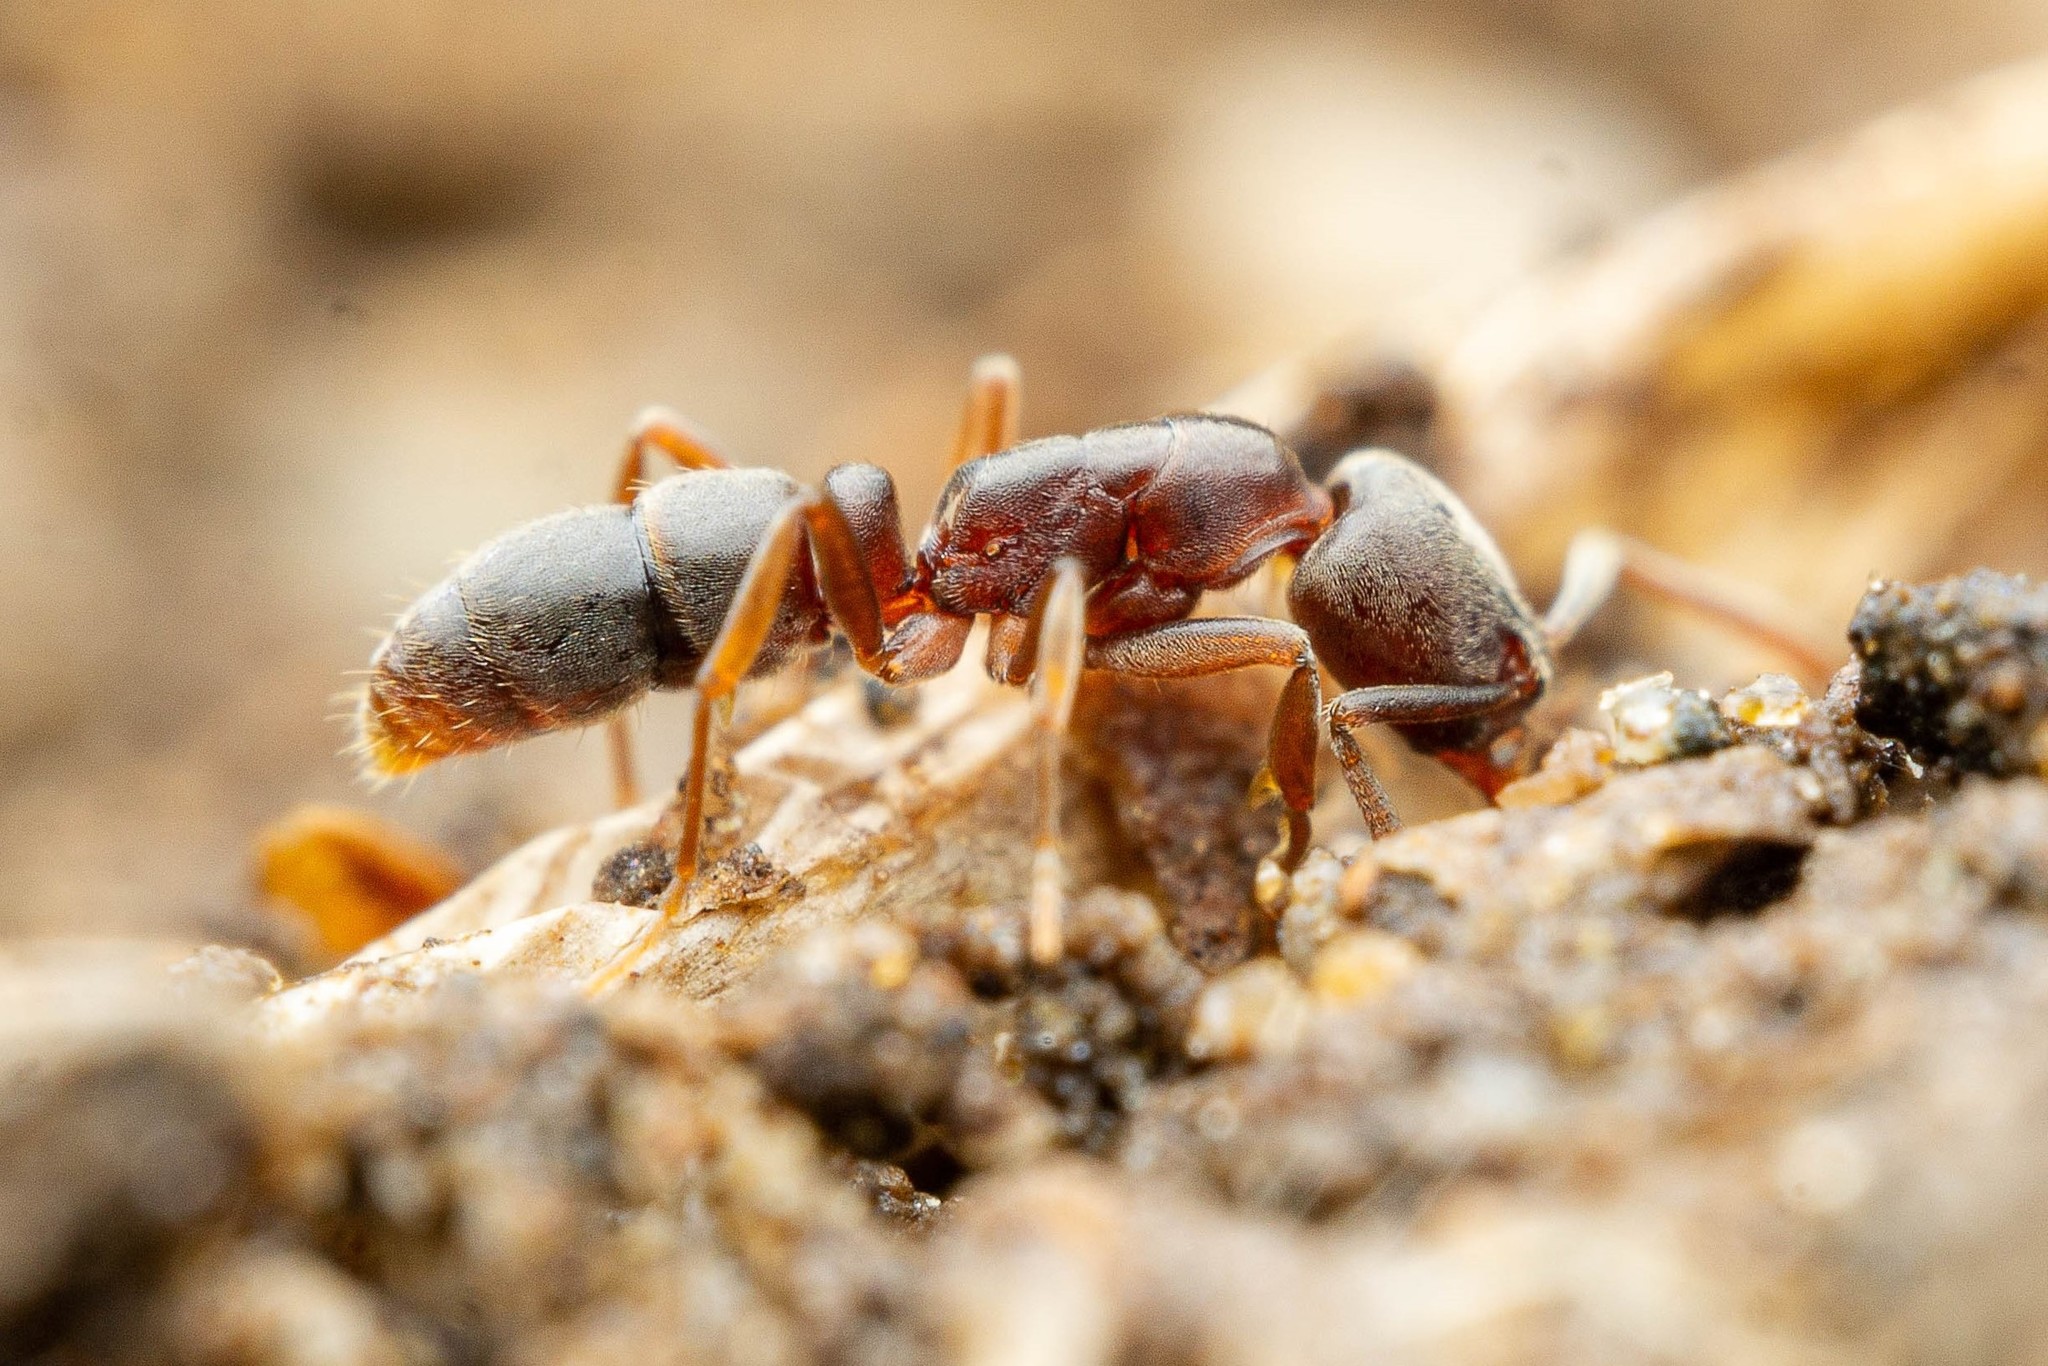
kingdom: Animalia
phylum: Arthropoda
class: Insecta
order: Hymenoptera
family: Formicidae
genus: Hypoponera
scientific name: Hypoponera opaciceps
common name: Granulate mini-ponerine ant
